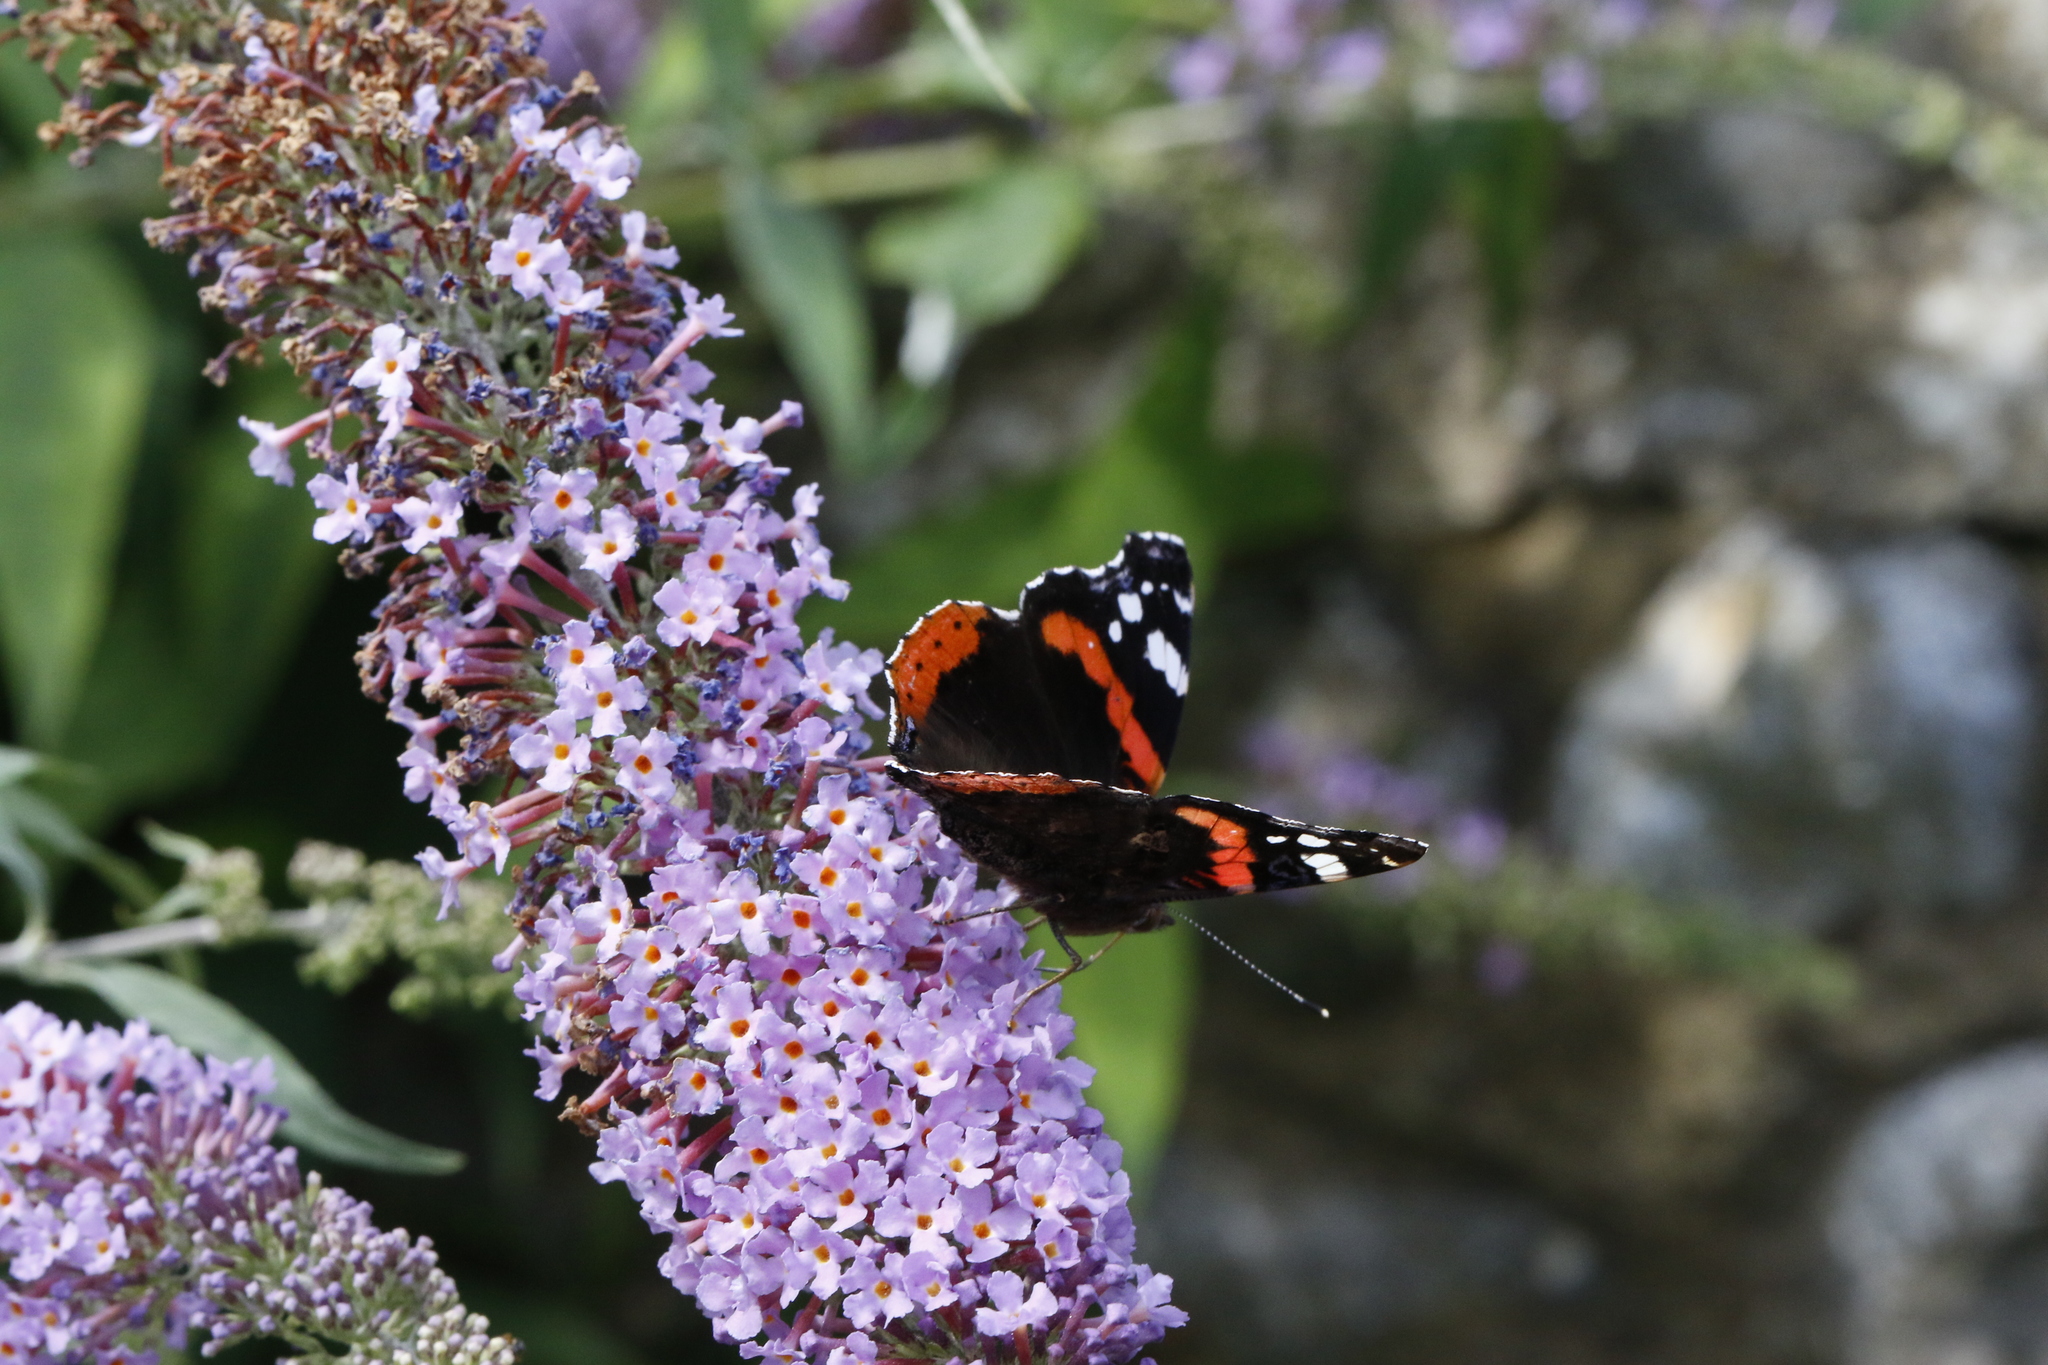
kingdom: Animalia
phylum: Arthropoda
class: Insecta
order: Lepidoptera
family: Nymphalidae
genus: Vanessa
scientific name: Vanessa atalanta
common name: Red admiral
